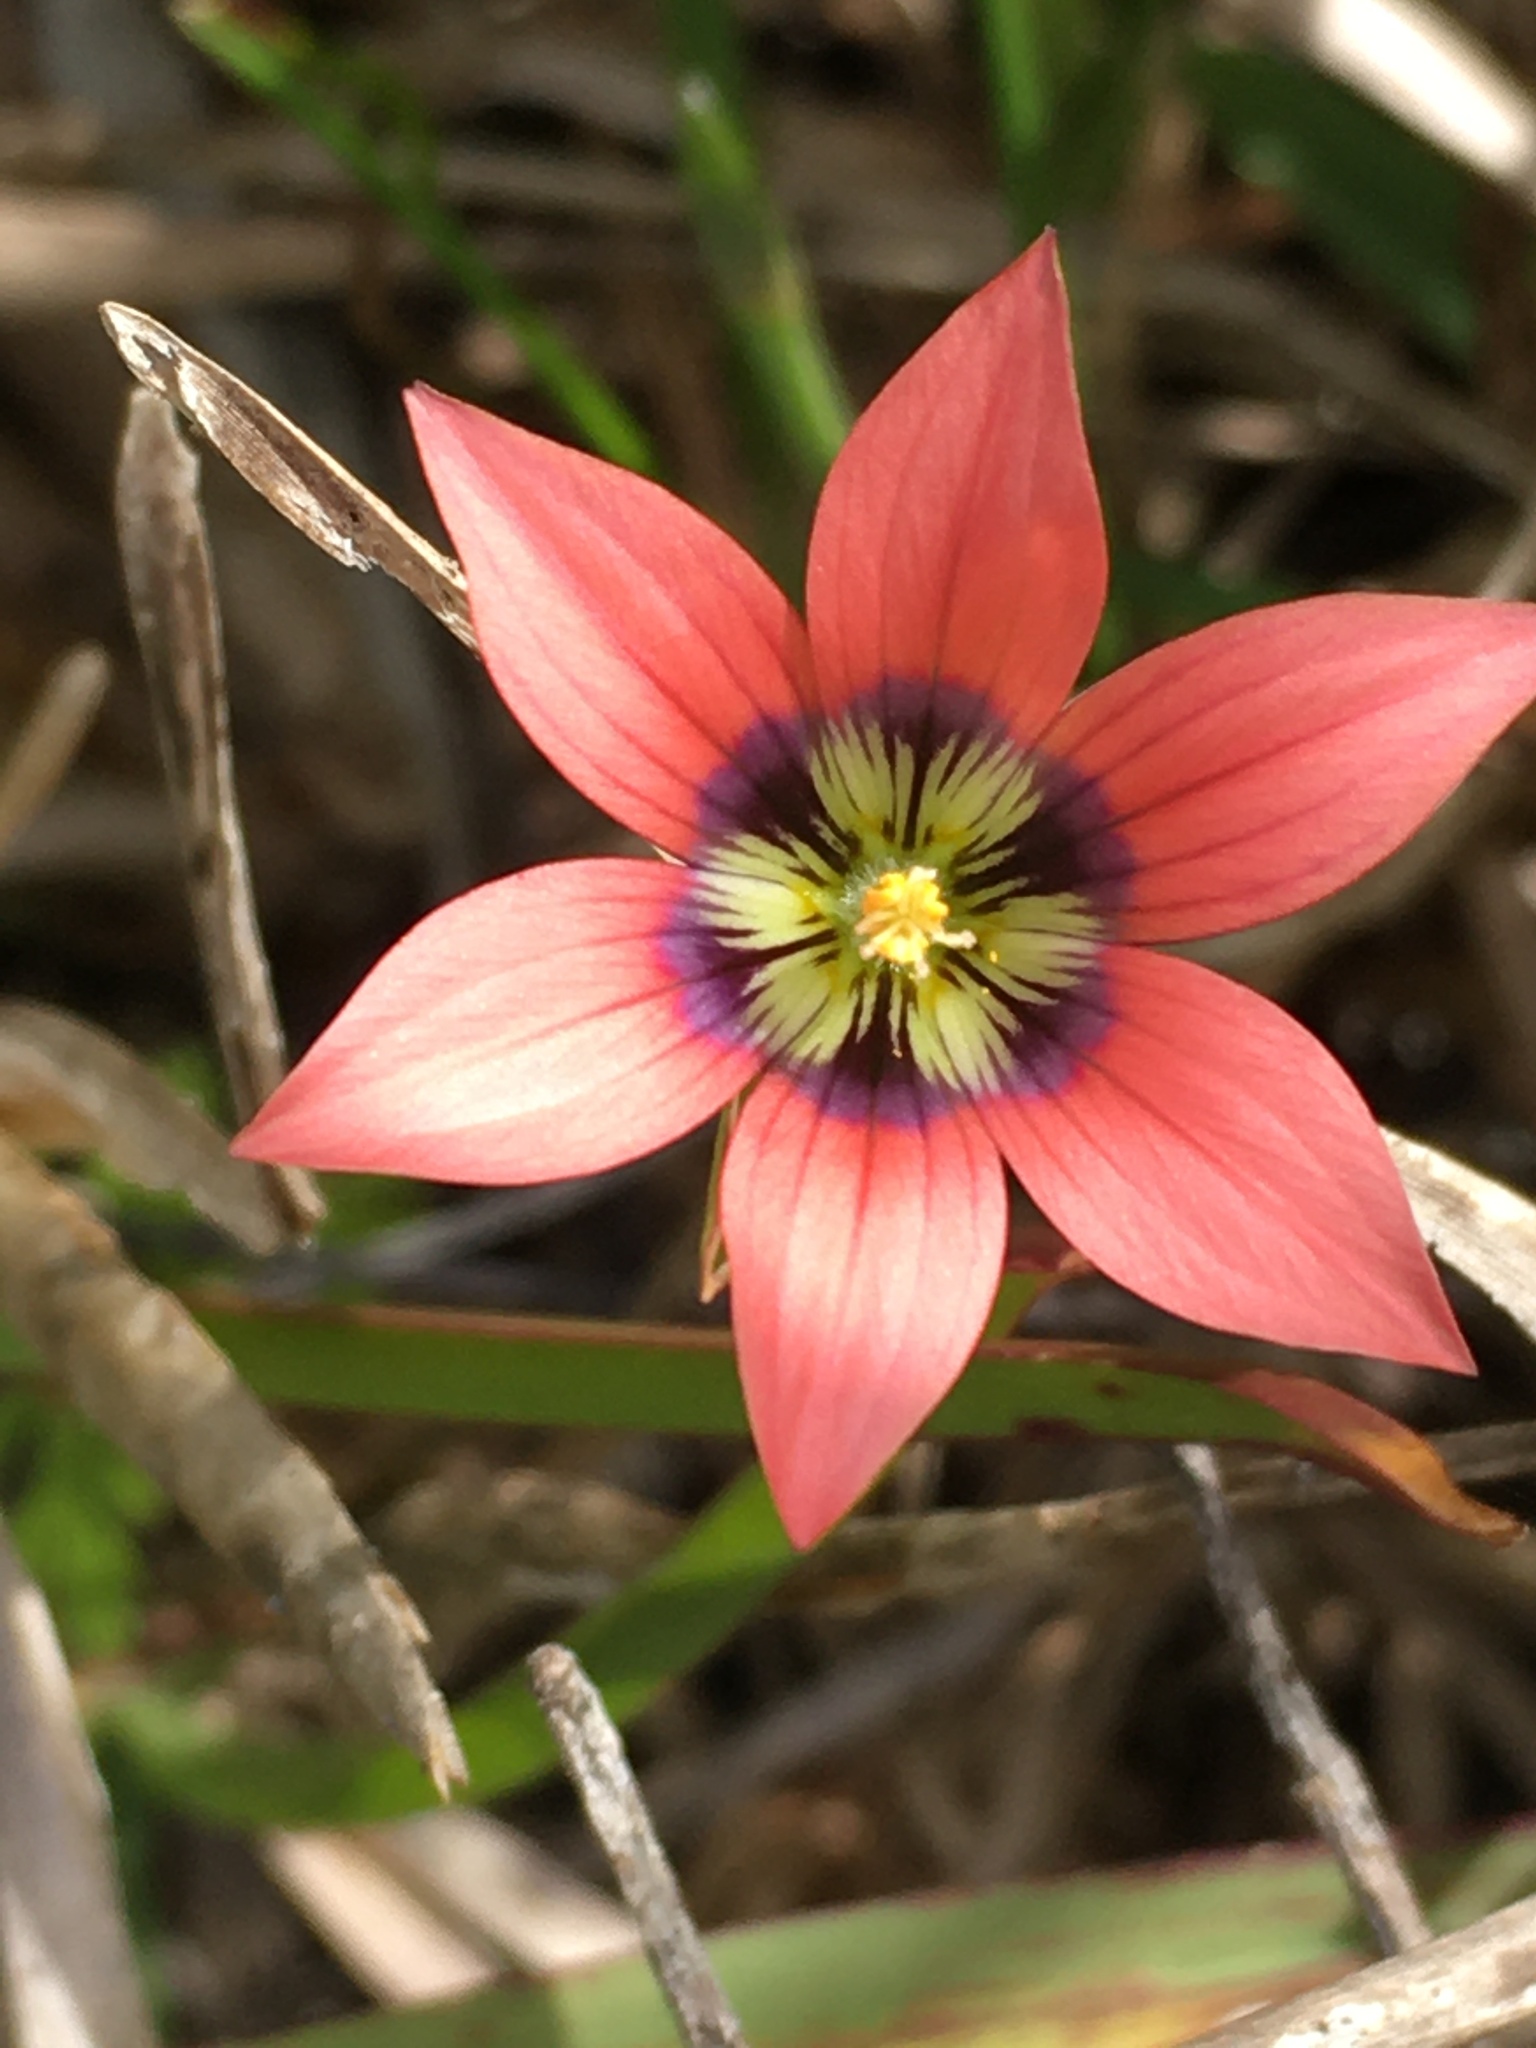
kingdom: Plantae
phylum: Tracheophyta
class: Liliopsida
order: Asparagales
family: Iridaceae
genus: Romulea
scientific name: Romulea hirsuta
